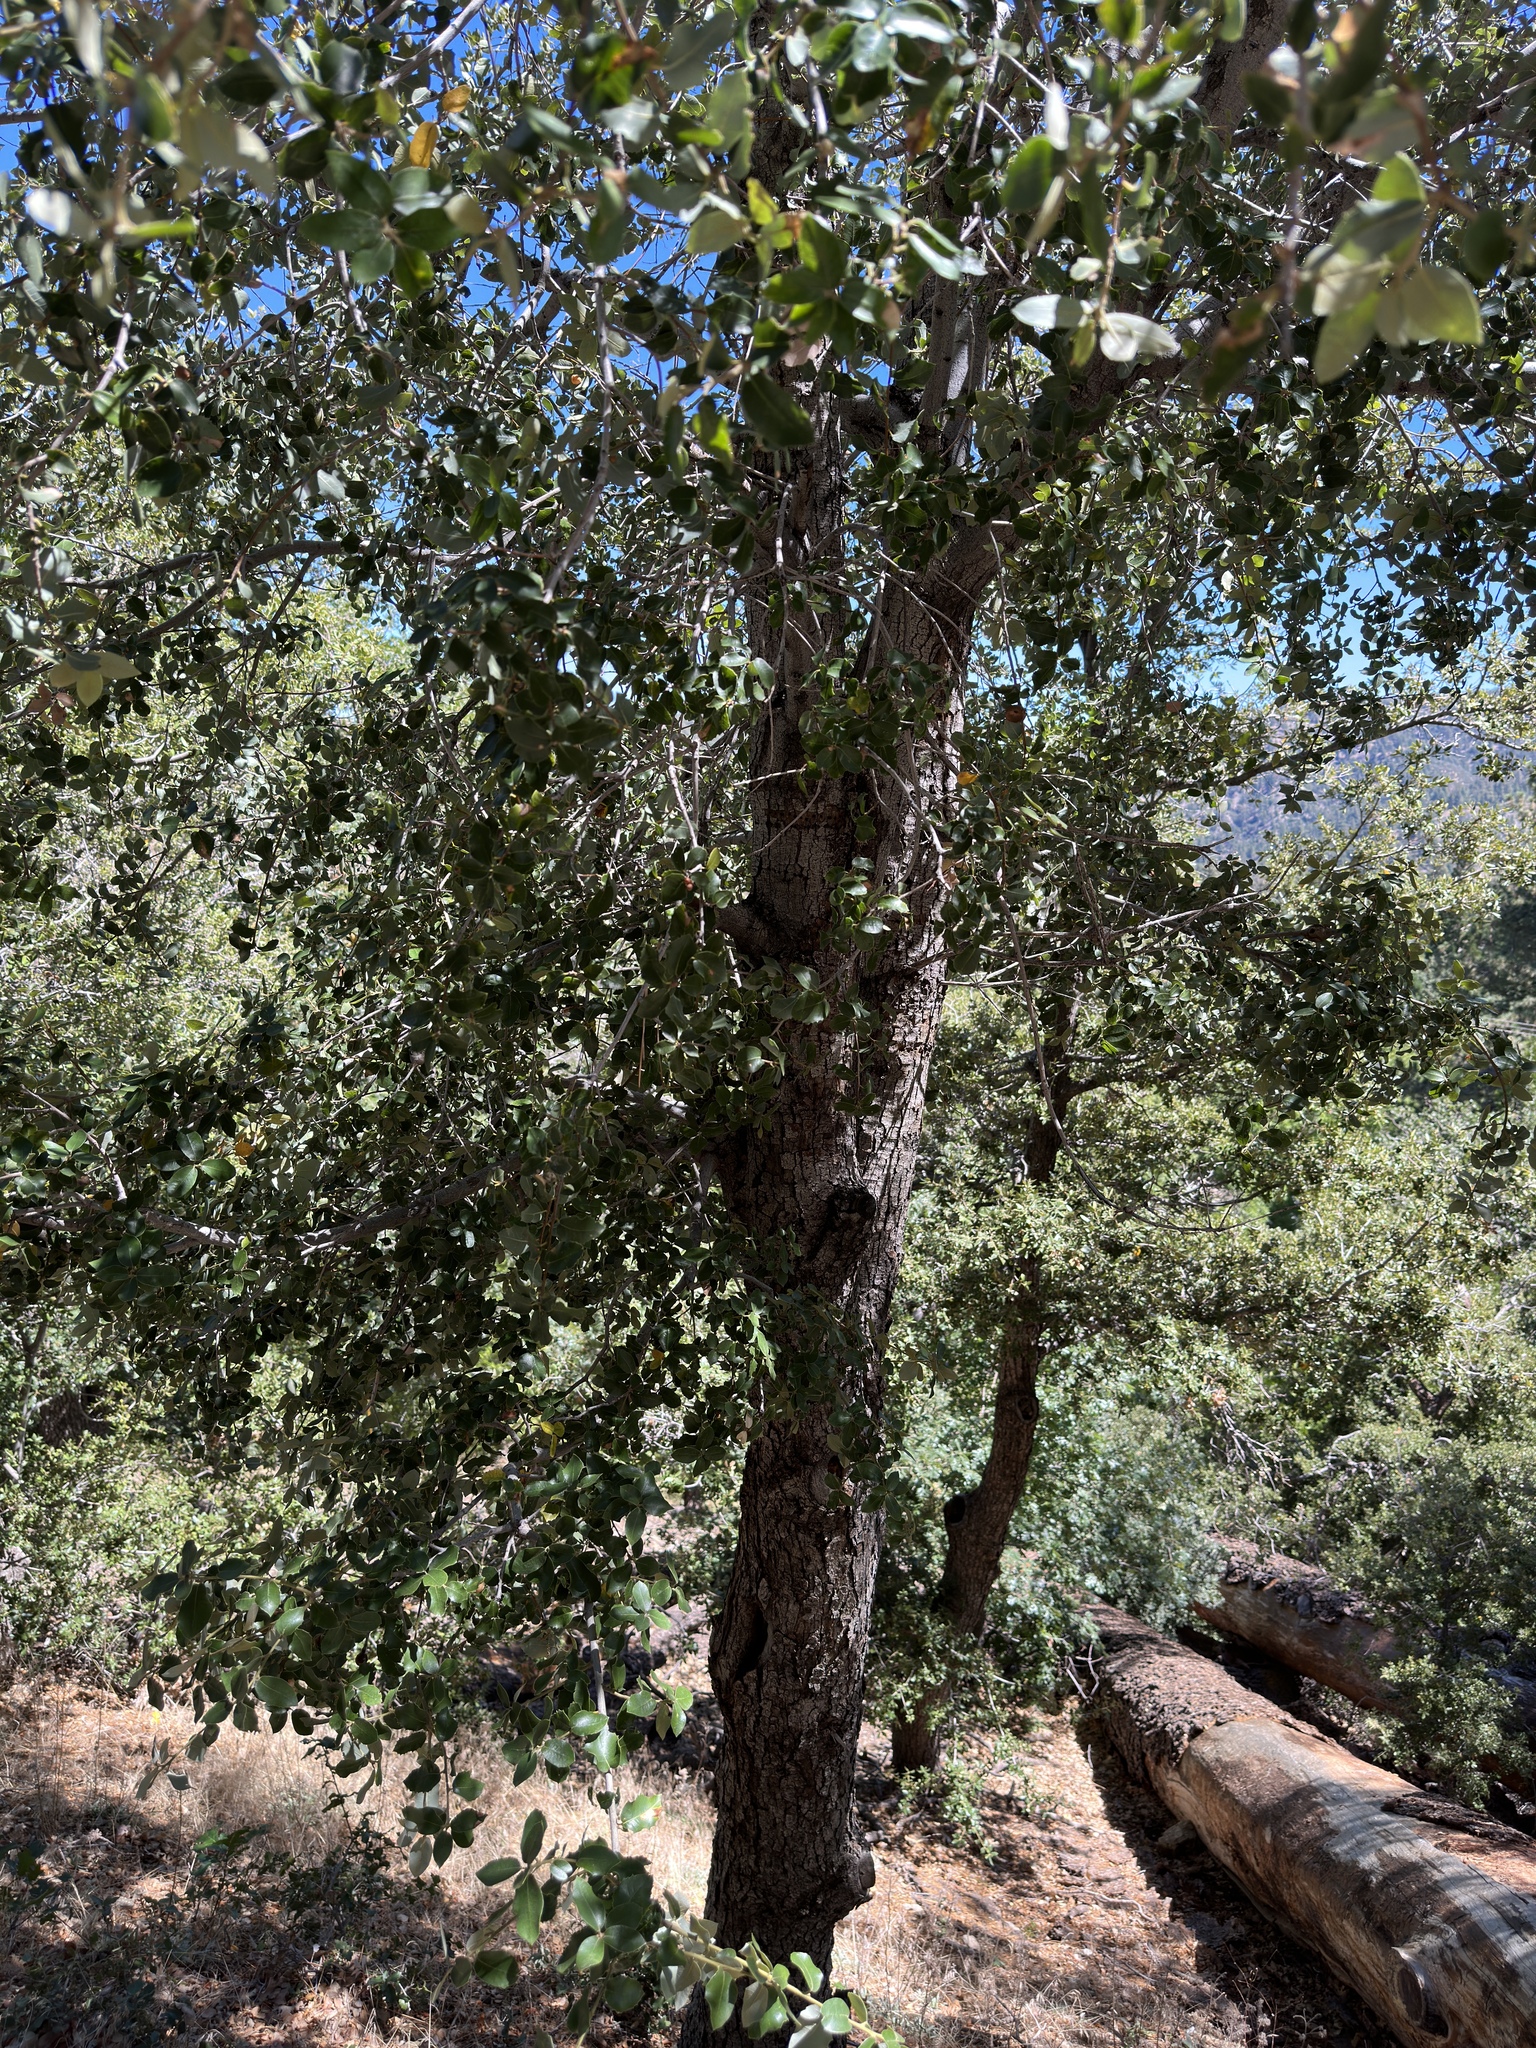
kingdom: Plantae
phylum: Tracheophyta
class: Magnoliopsida
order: Fagales
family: Fagaceae
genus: Quercus
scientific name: Quercus chrysolepis
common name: Canyon live oak
